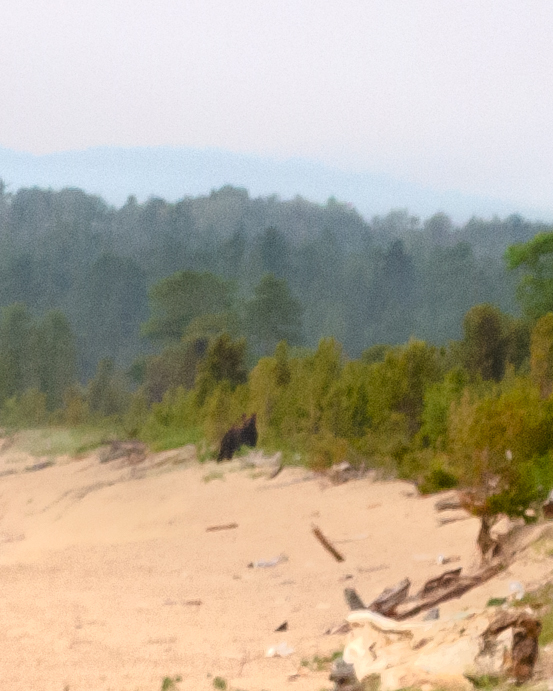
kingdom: Animalia
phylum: Chordata
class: Mammalia
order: Carnivora
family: Ursidae
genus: Ursus
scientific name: Ursus arctos
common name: Brown bear
